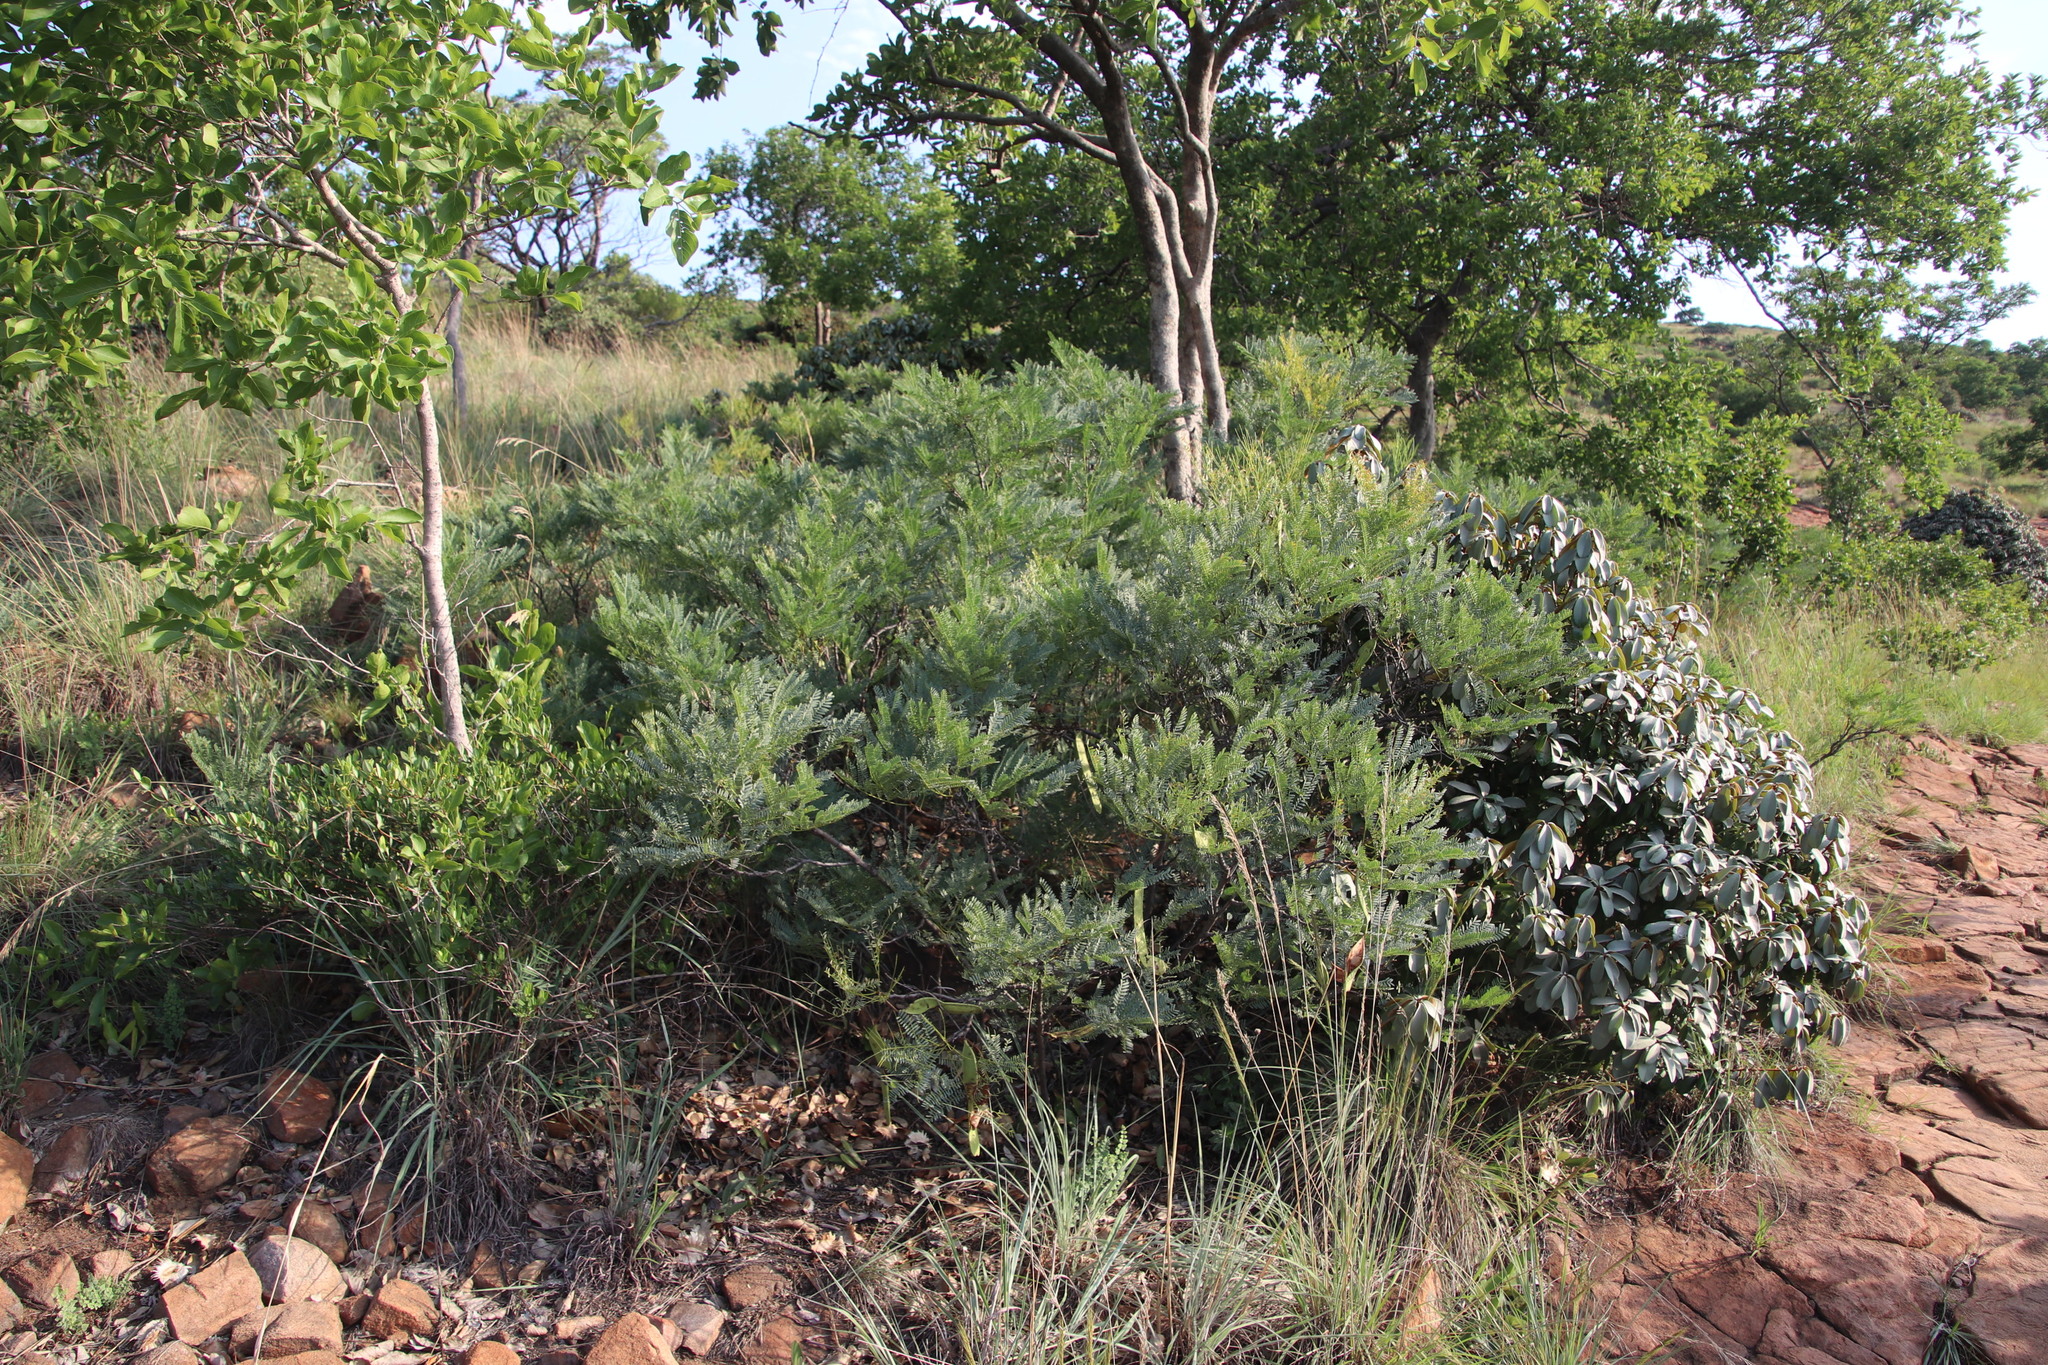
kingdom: Plantae
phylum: Tracheophyta
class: Magnoliopsida
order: Fabales
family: Fabaceae
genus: Elephantorrhiza
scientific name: Elephantorrhiza burkei
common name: Broad-pod elephant-root
